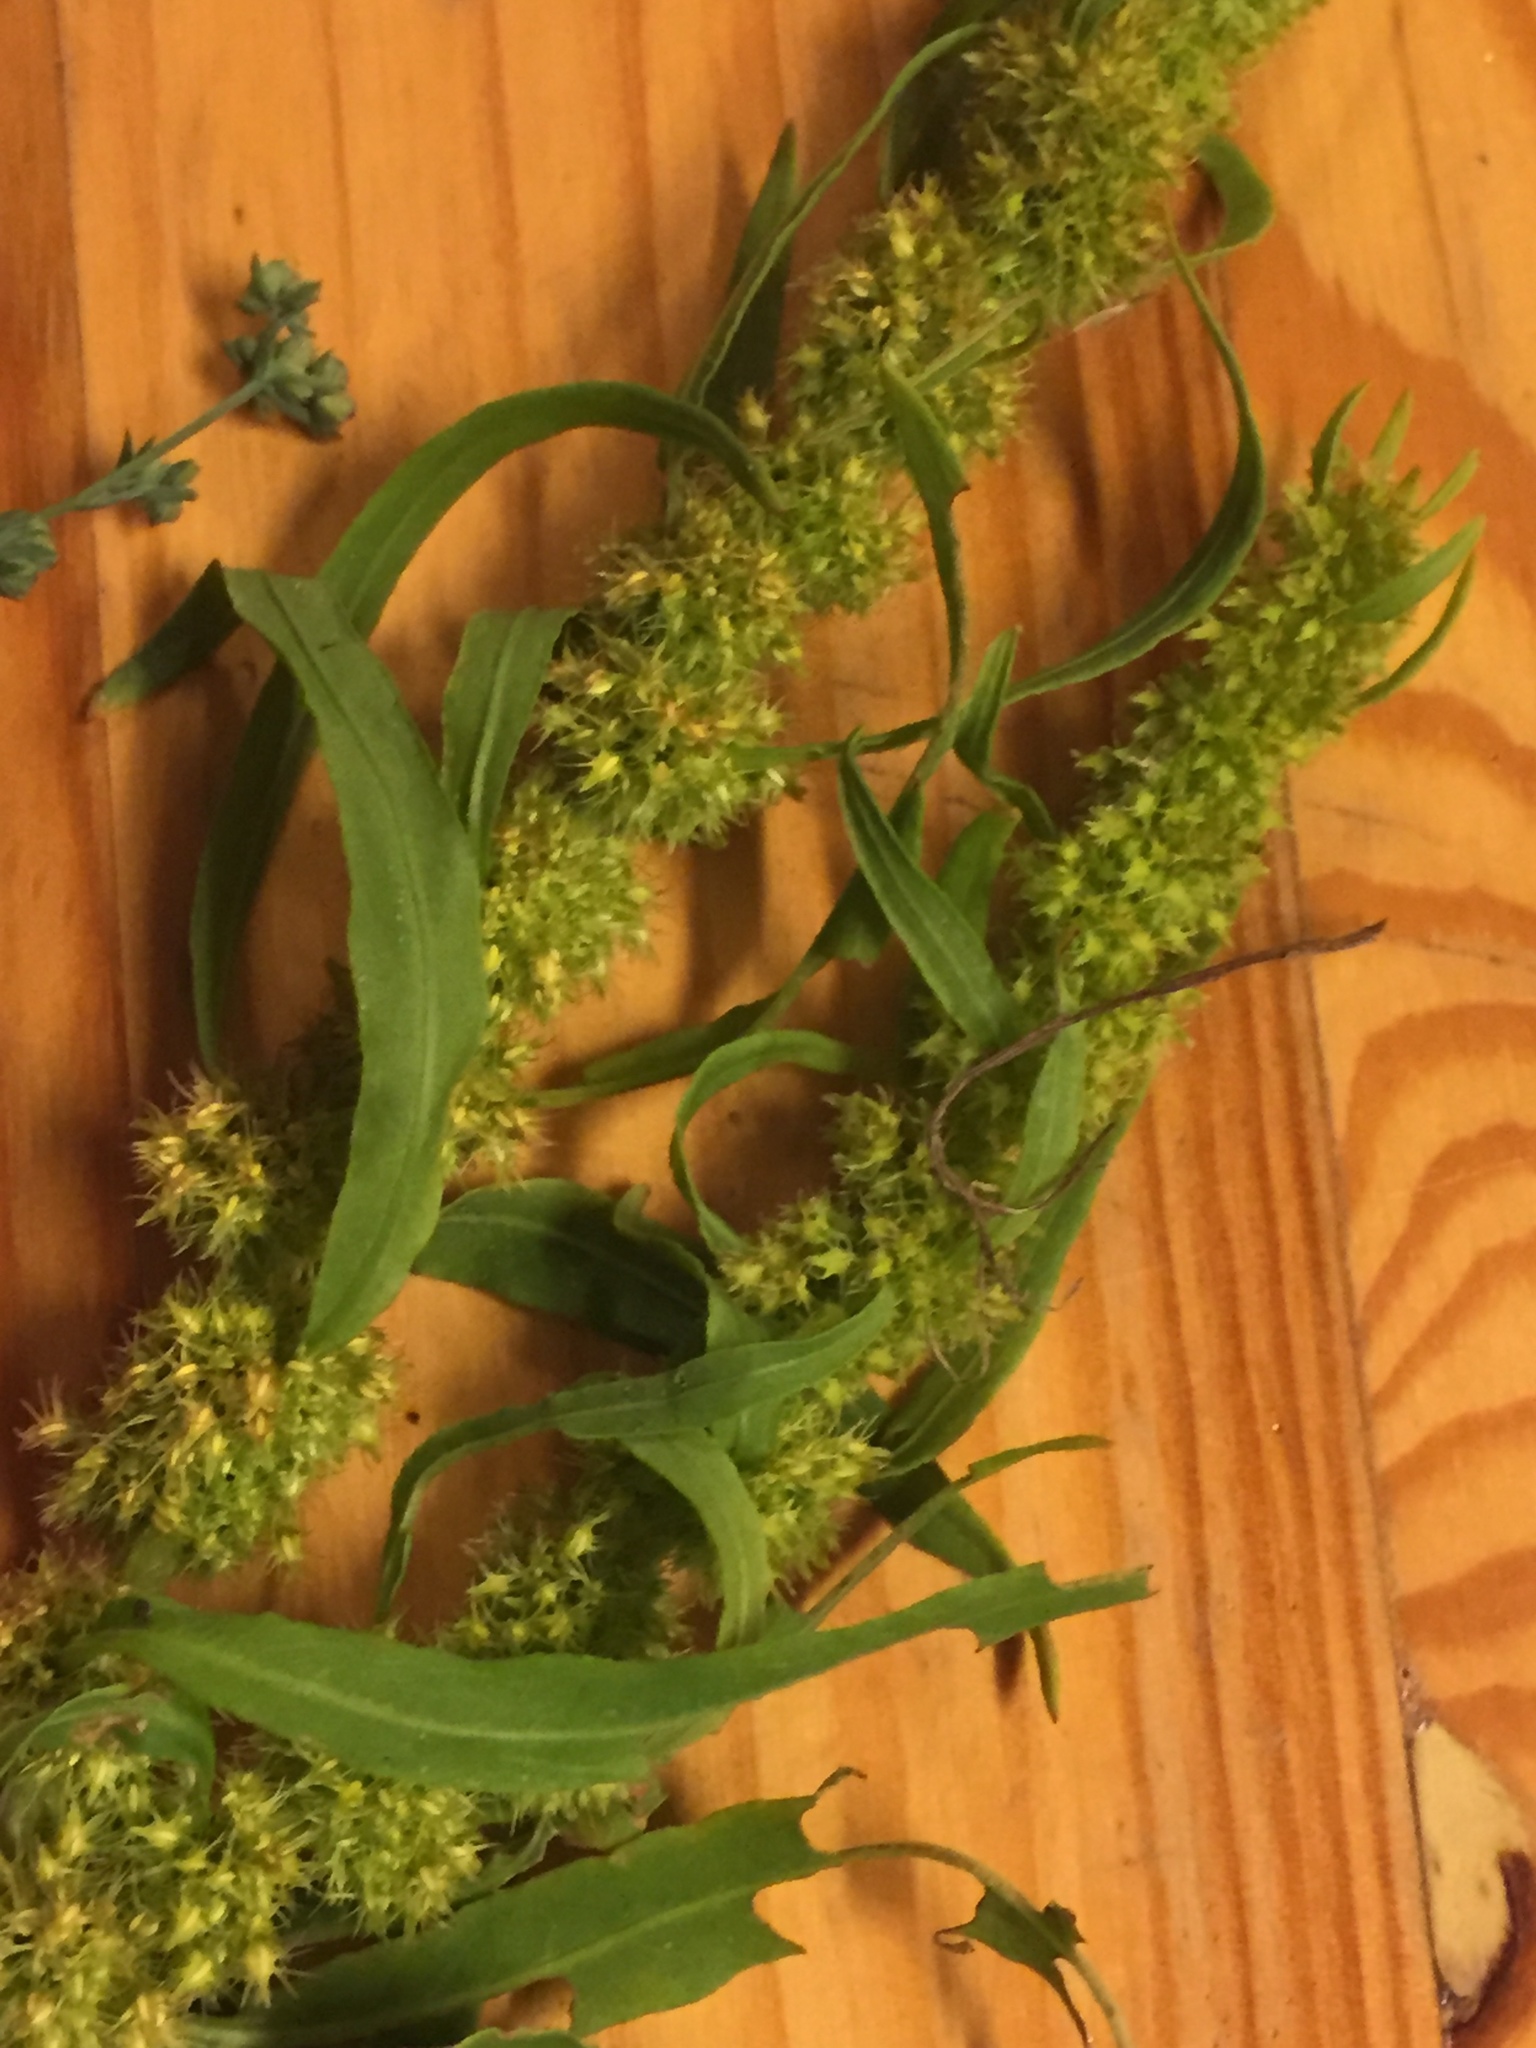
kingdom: Plantae
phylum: Tracheophyta
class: Magnoliopsida
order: Caryophyllales
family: Polygonaceae
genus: Rumex
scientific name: Rumex maritimus
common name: Golden dock
